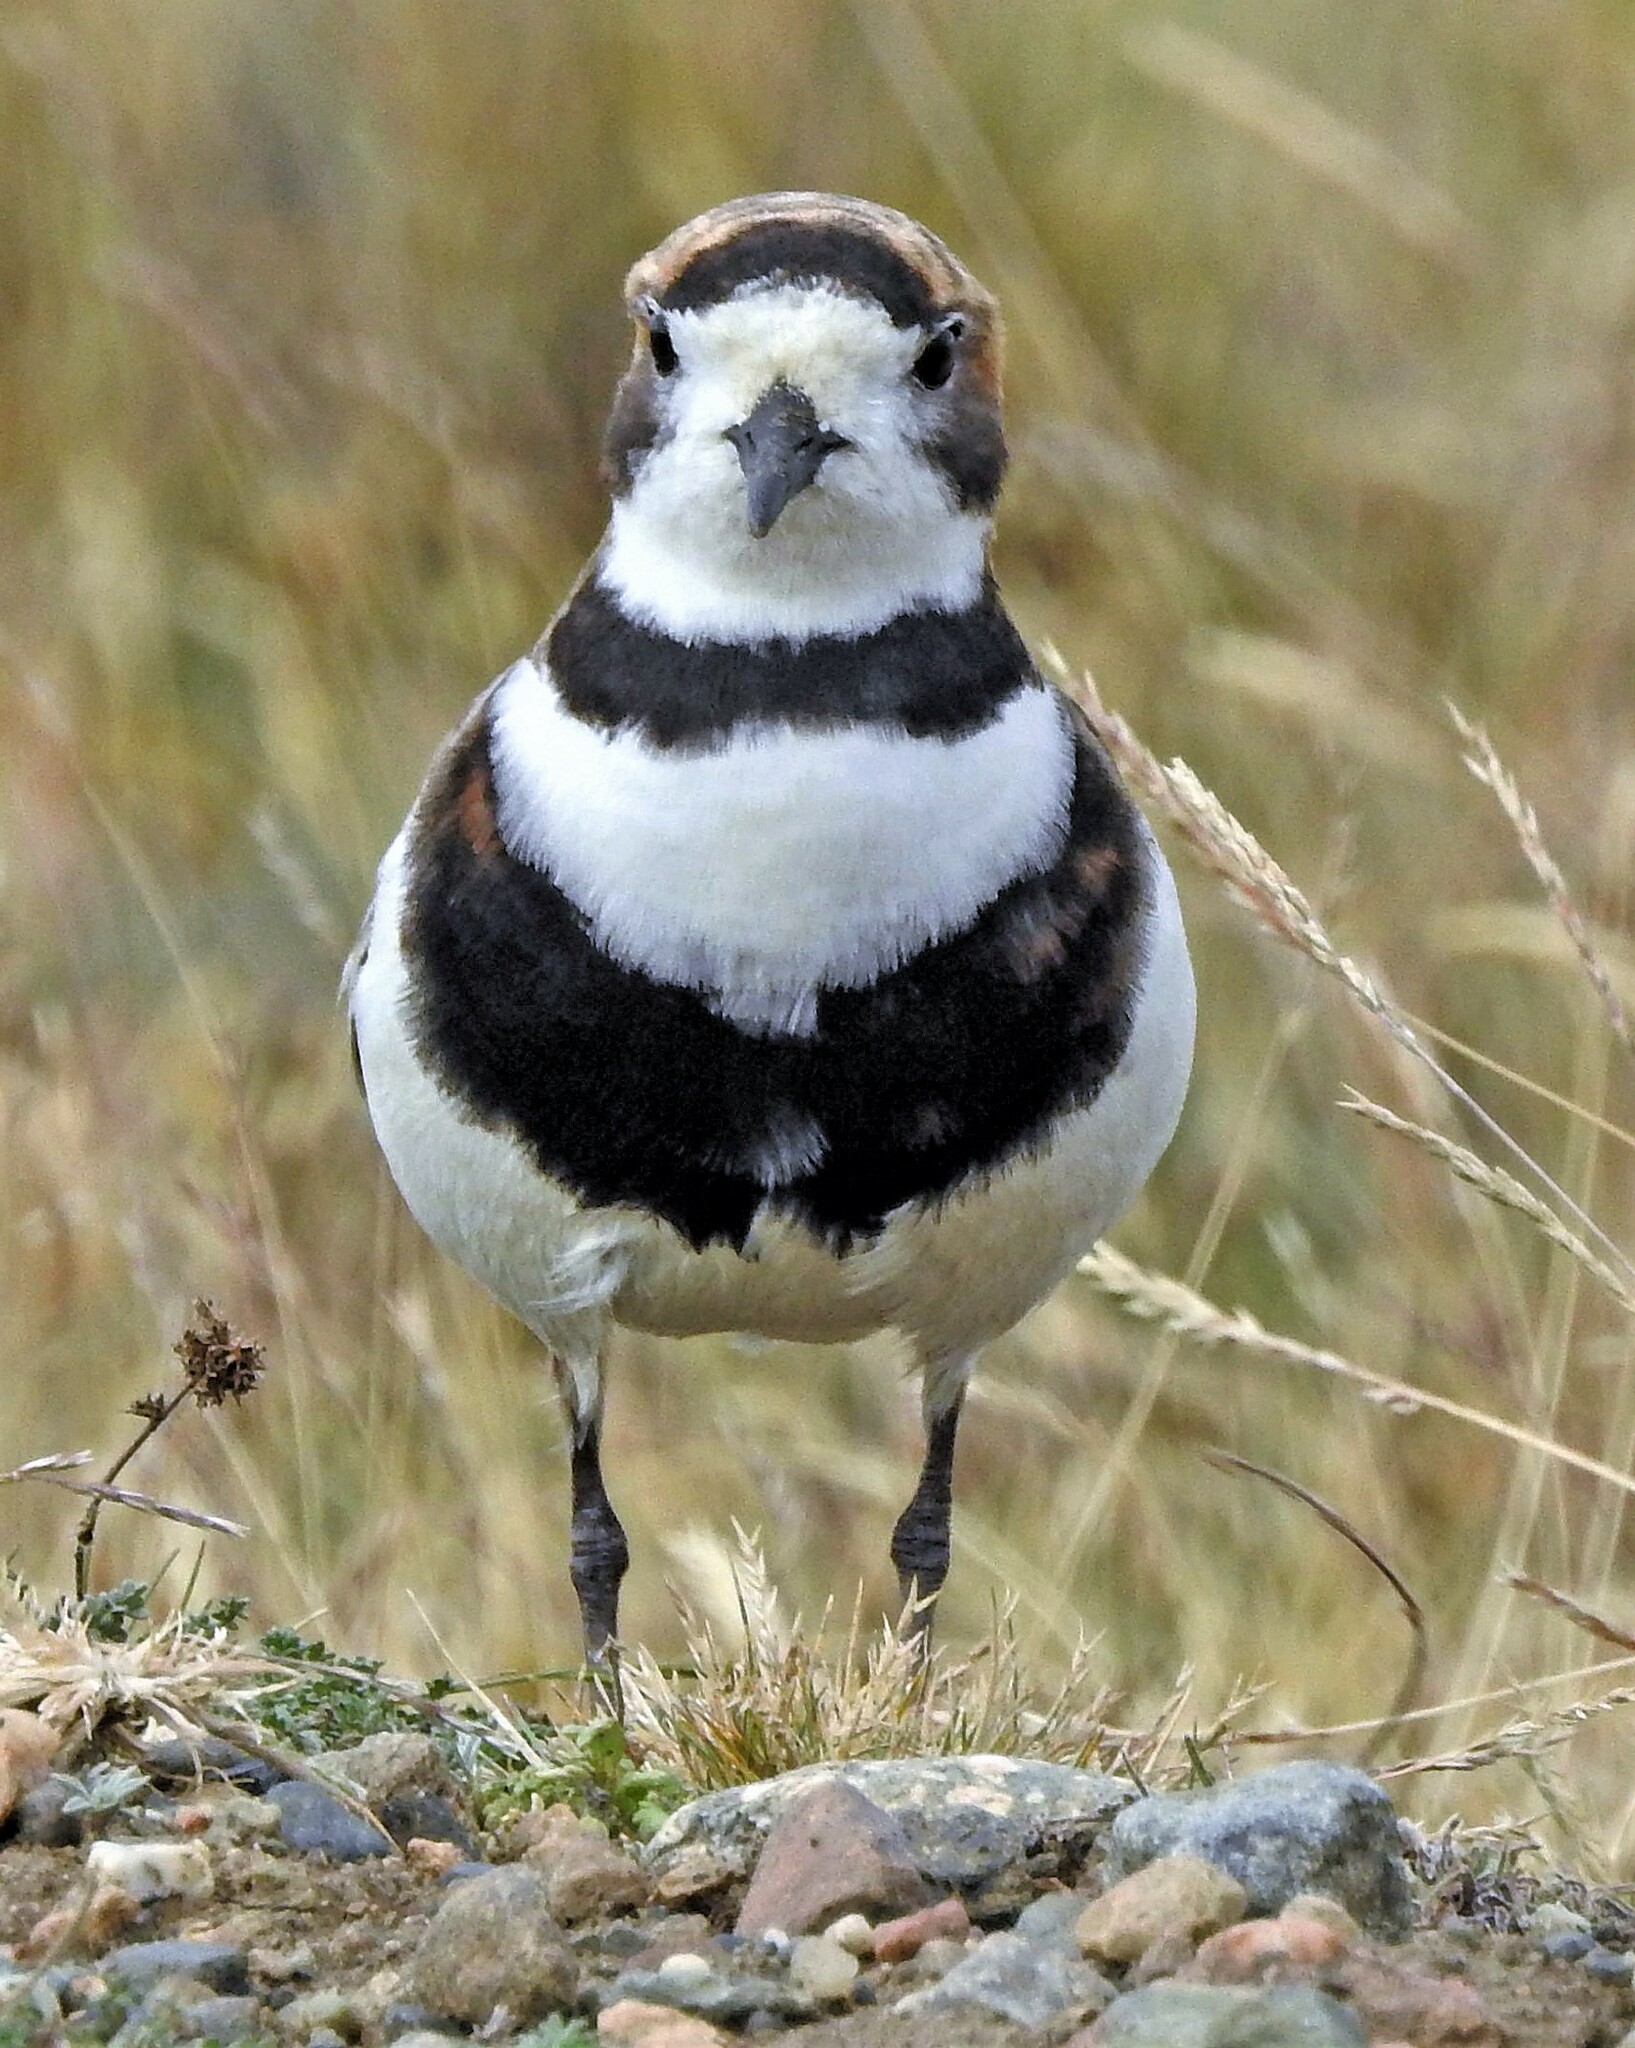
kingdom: Animalia
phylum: Chordata
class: Aves
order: Charadriiformes
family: Charadriidae
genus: Anarhynchus
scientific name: Anarhynchus
